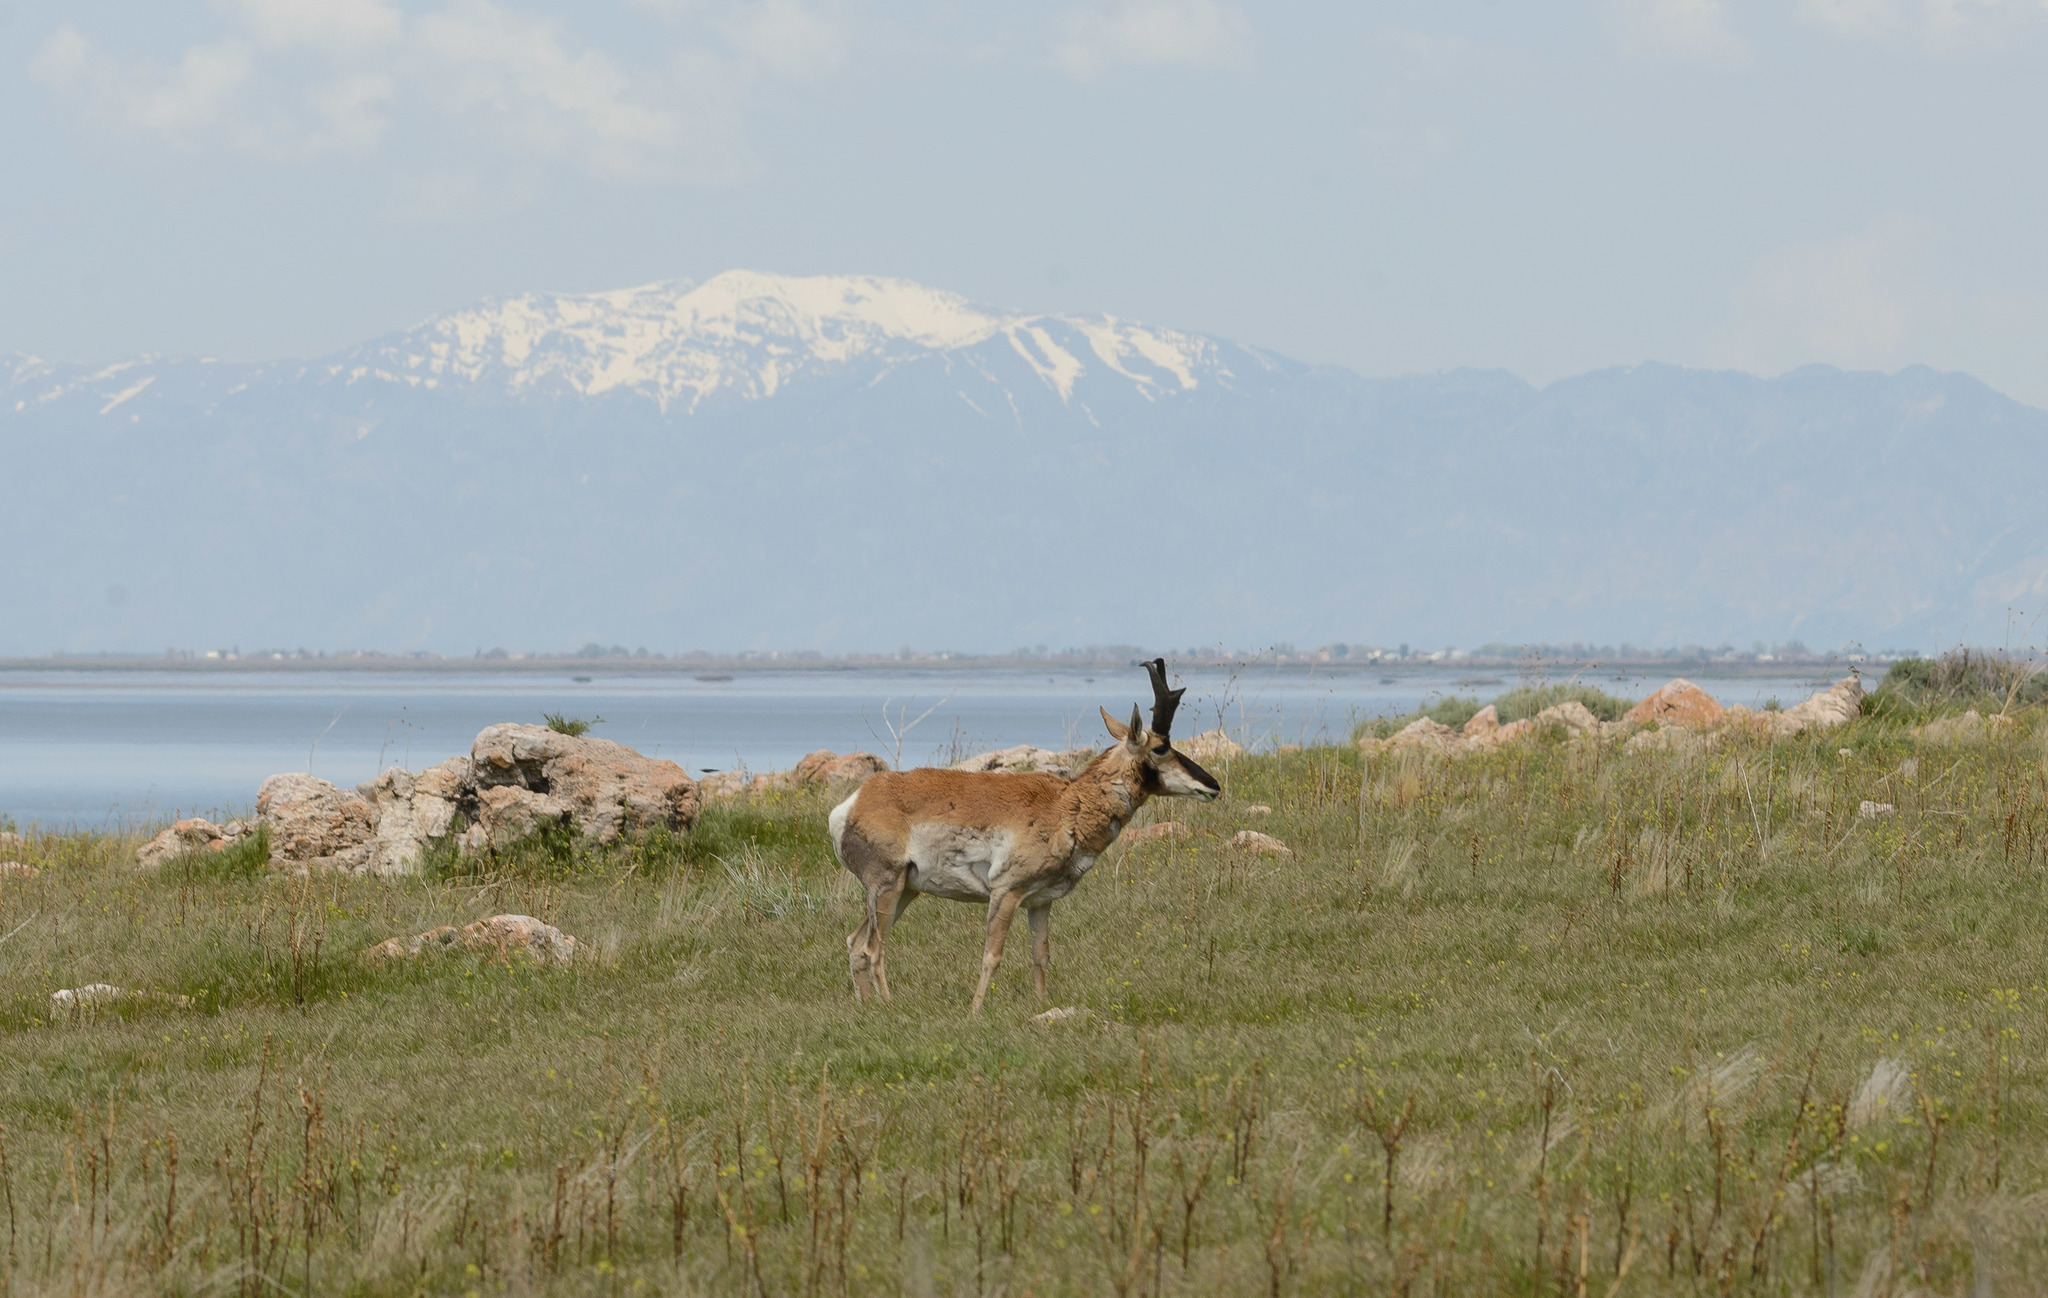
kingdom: Animalia
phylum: Chordata
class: Mammalia
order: Artiodactyla
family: Antilocapridae
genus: Antilocapra
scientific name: Antilocapra americana
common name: Pronghorn
